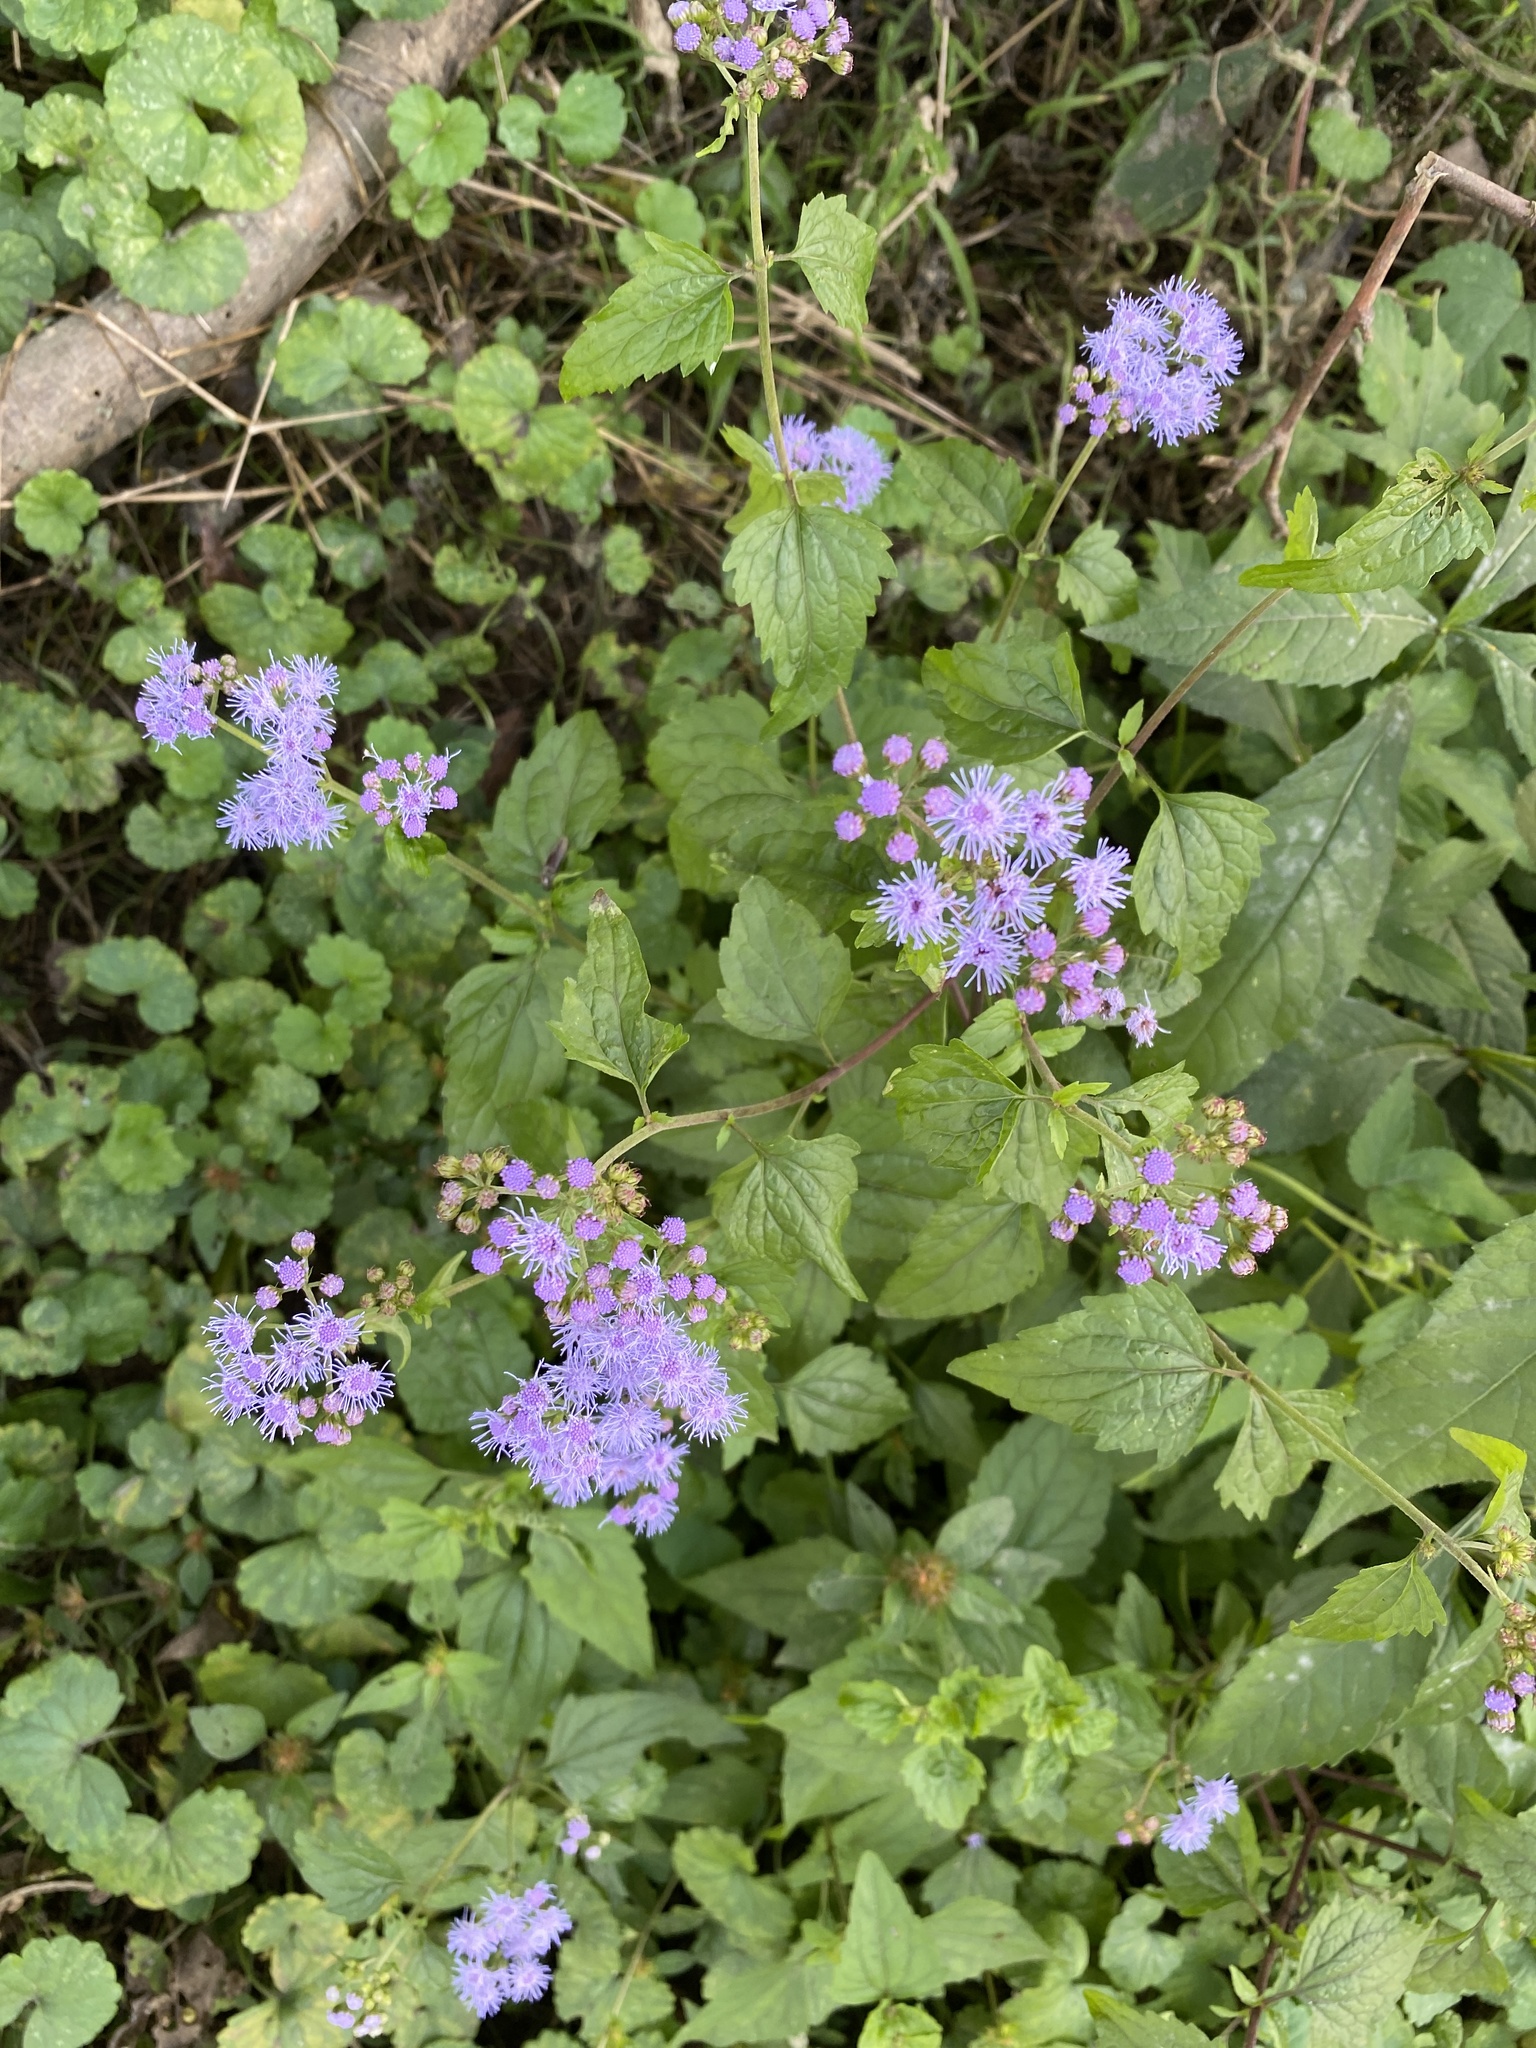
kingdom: Plantae
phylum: Tracheophyta
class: Magnoliopsida
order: Asterales
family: Asteraceae
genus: Conoclinium
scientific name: Conoclinium coelestinum
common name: Blue mistflower
